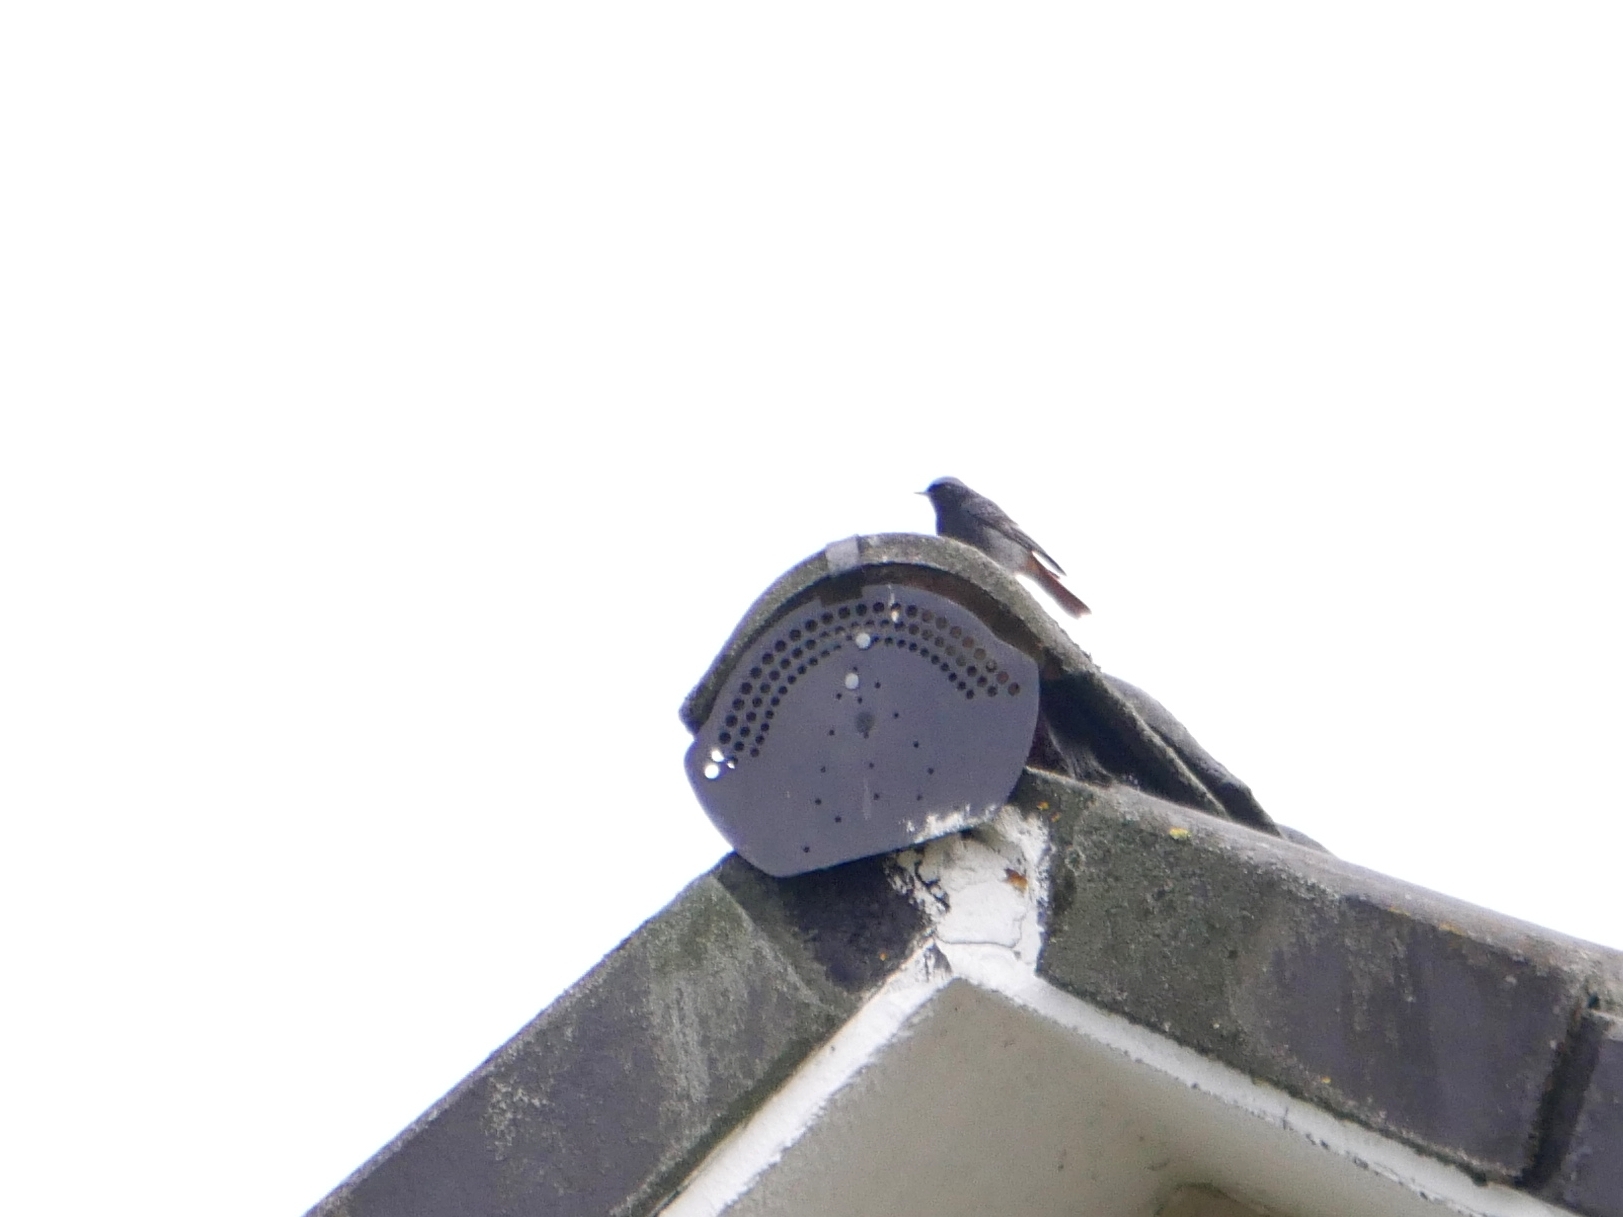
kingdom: Animalia
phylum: Chordata
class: Aves
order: Passeriformes
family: Muscicapidae
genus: Phoenicurus
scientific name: Phoenicurus ochruros
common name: Black redstart
